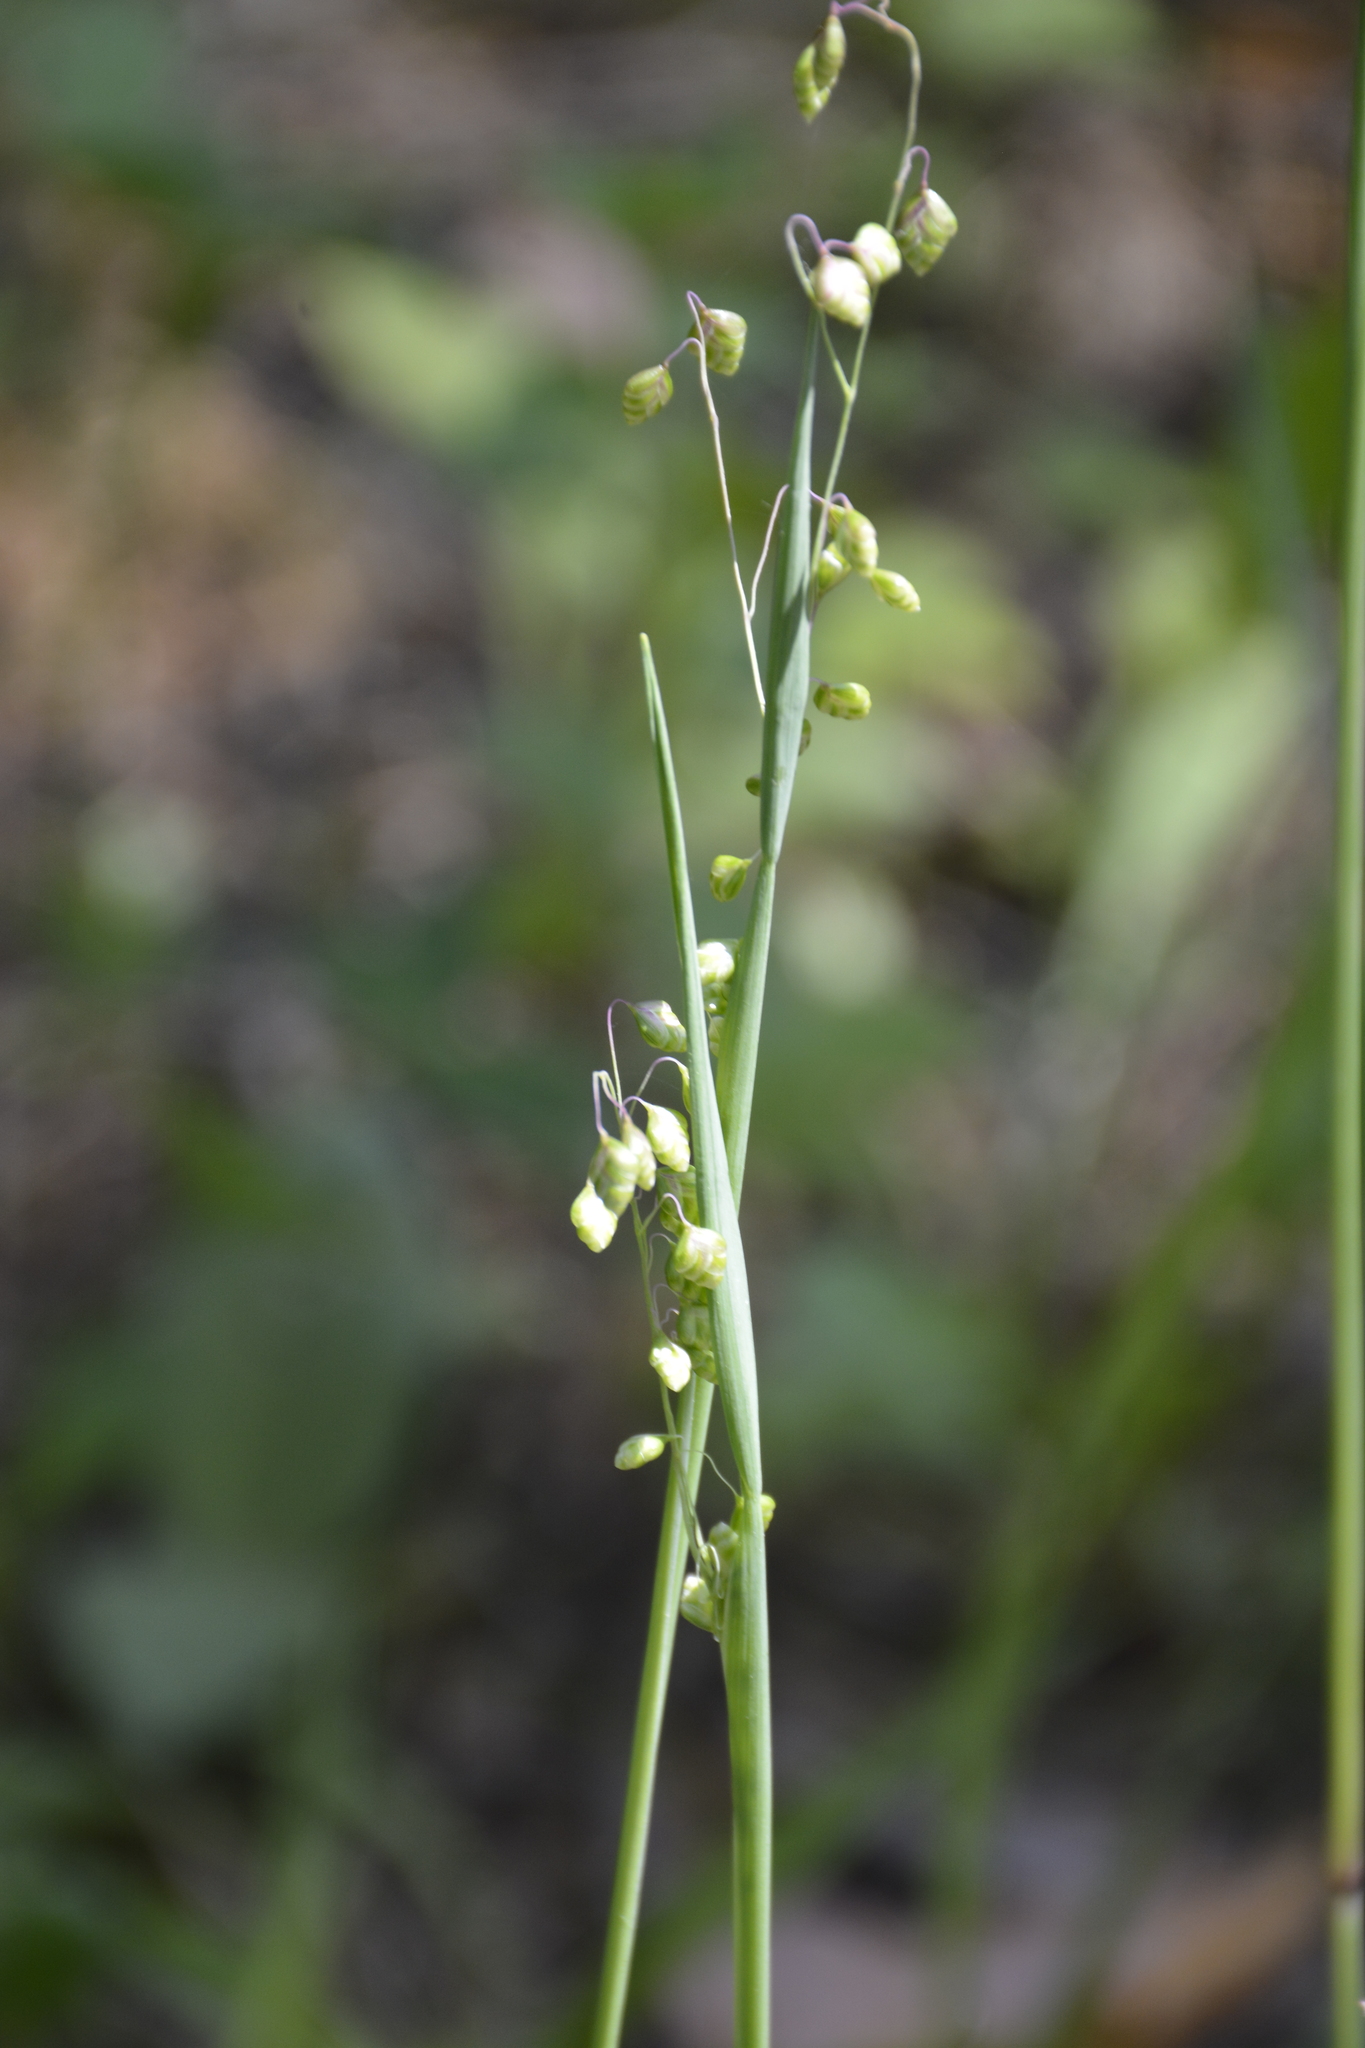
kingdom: Plantae
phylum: Tracheophyta
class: Liliopsida
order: Poales
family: Poaceae
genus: Briza
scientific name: Briza media
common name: Quaking grass
